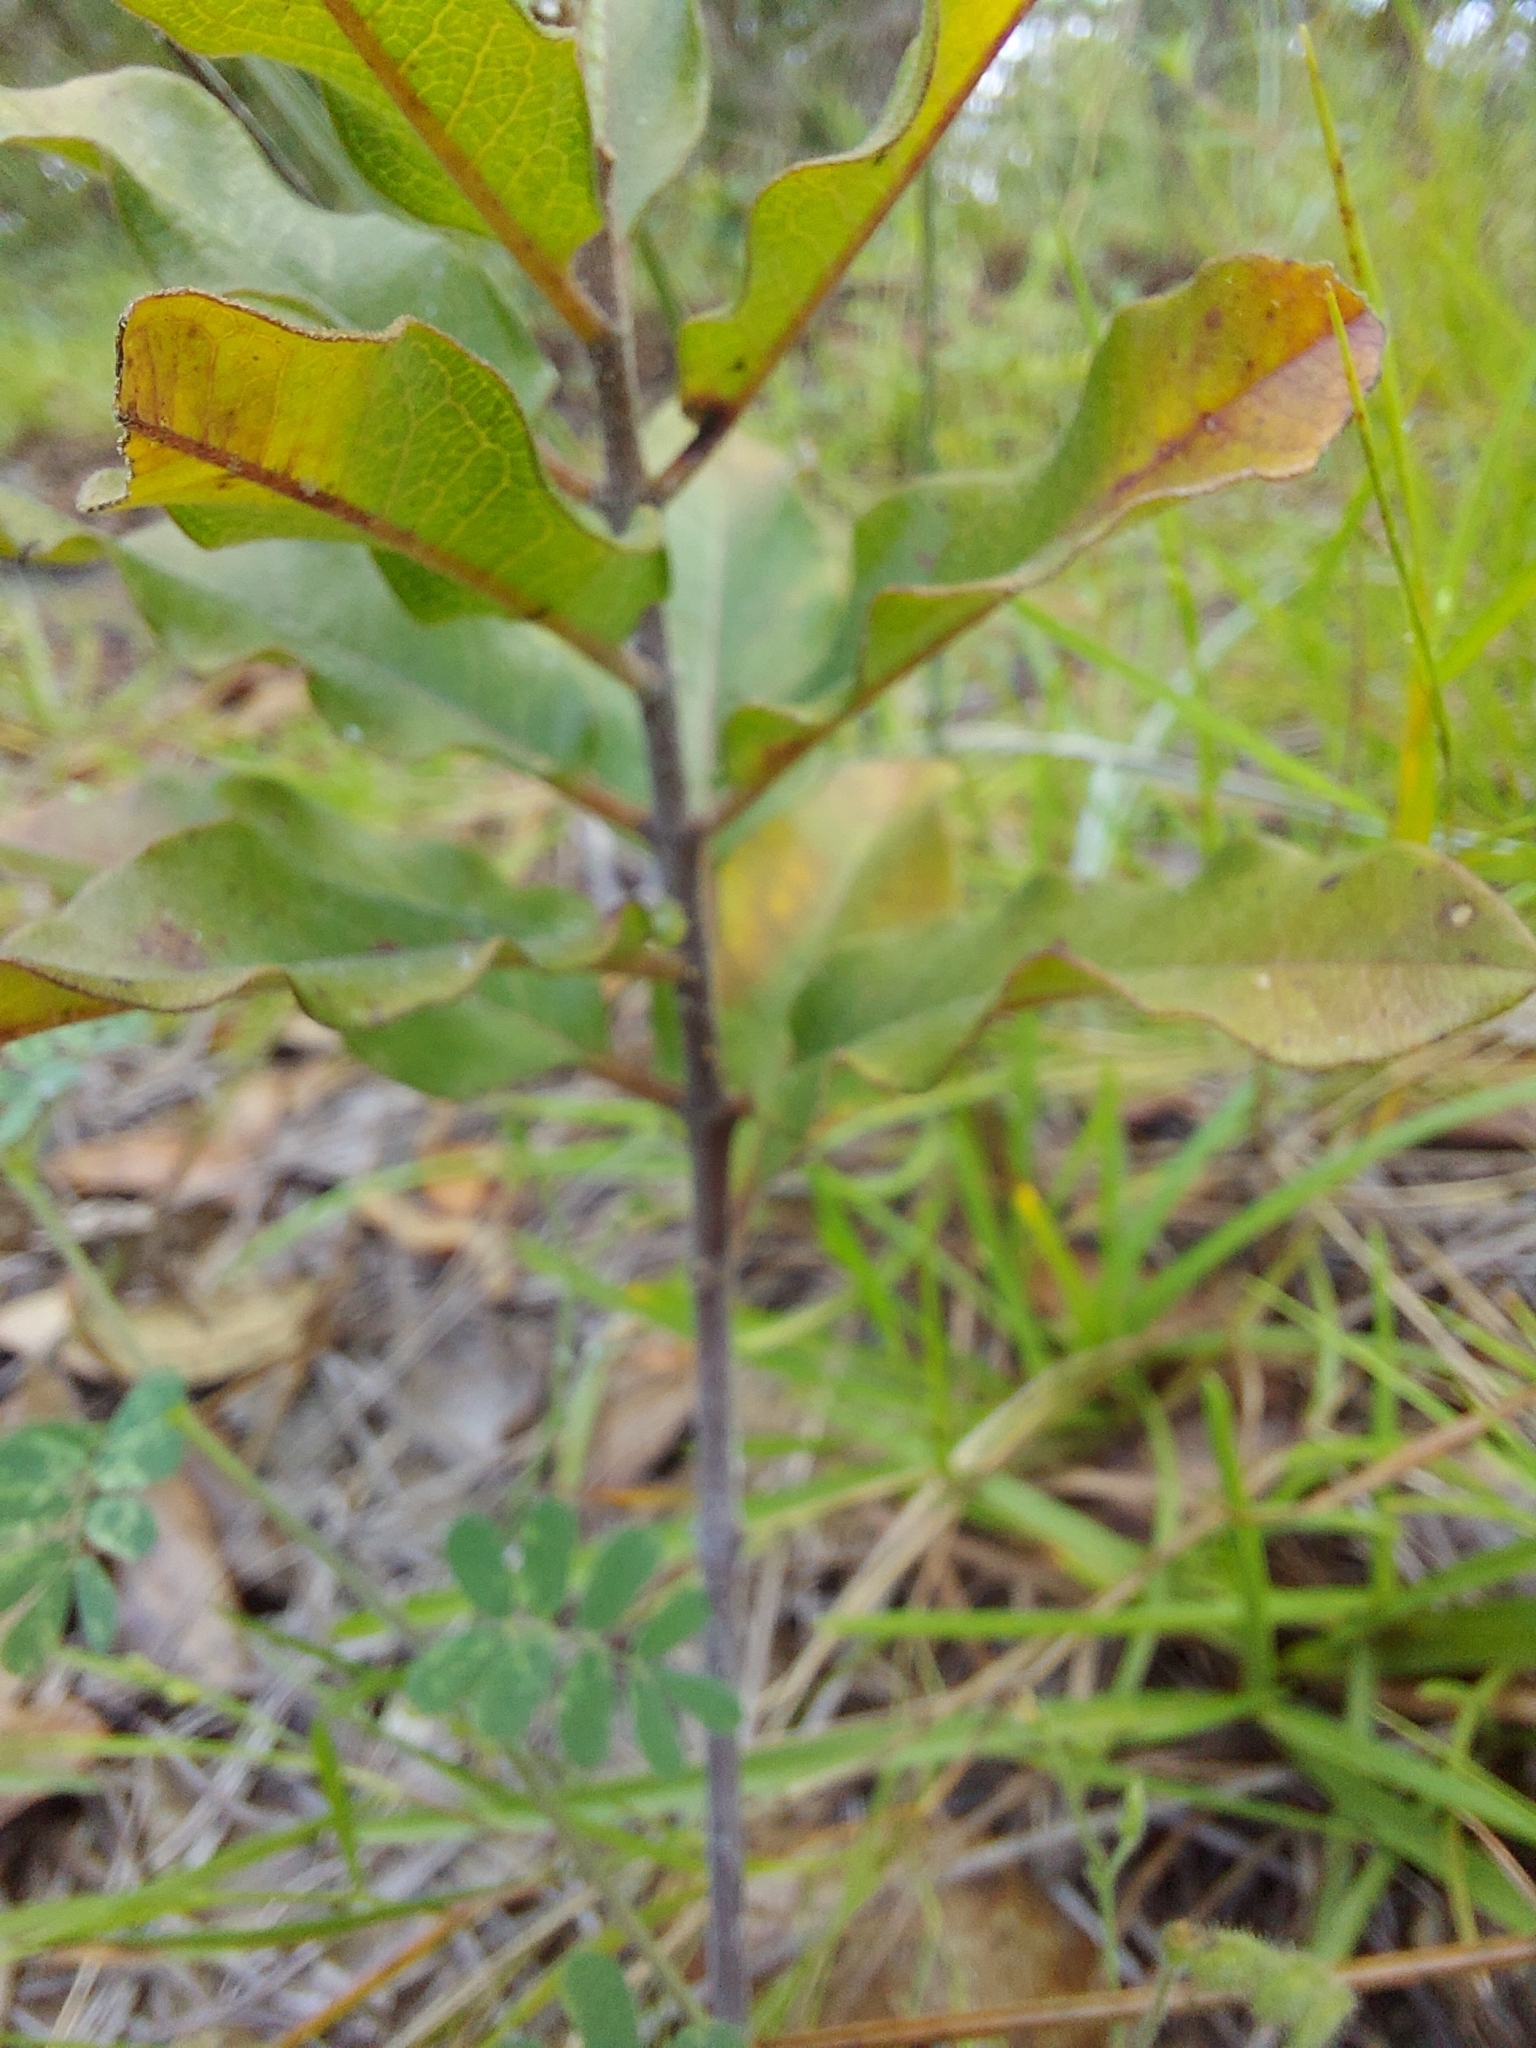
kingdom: Plantae
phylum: Tracheophyta
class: Magnoliopsida
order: Gentianales
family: Apocynaceae
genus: Asclepias
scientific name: Asclepias tomentosa
